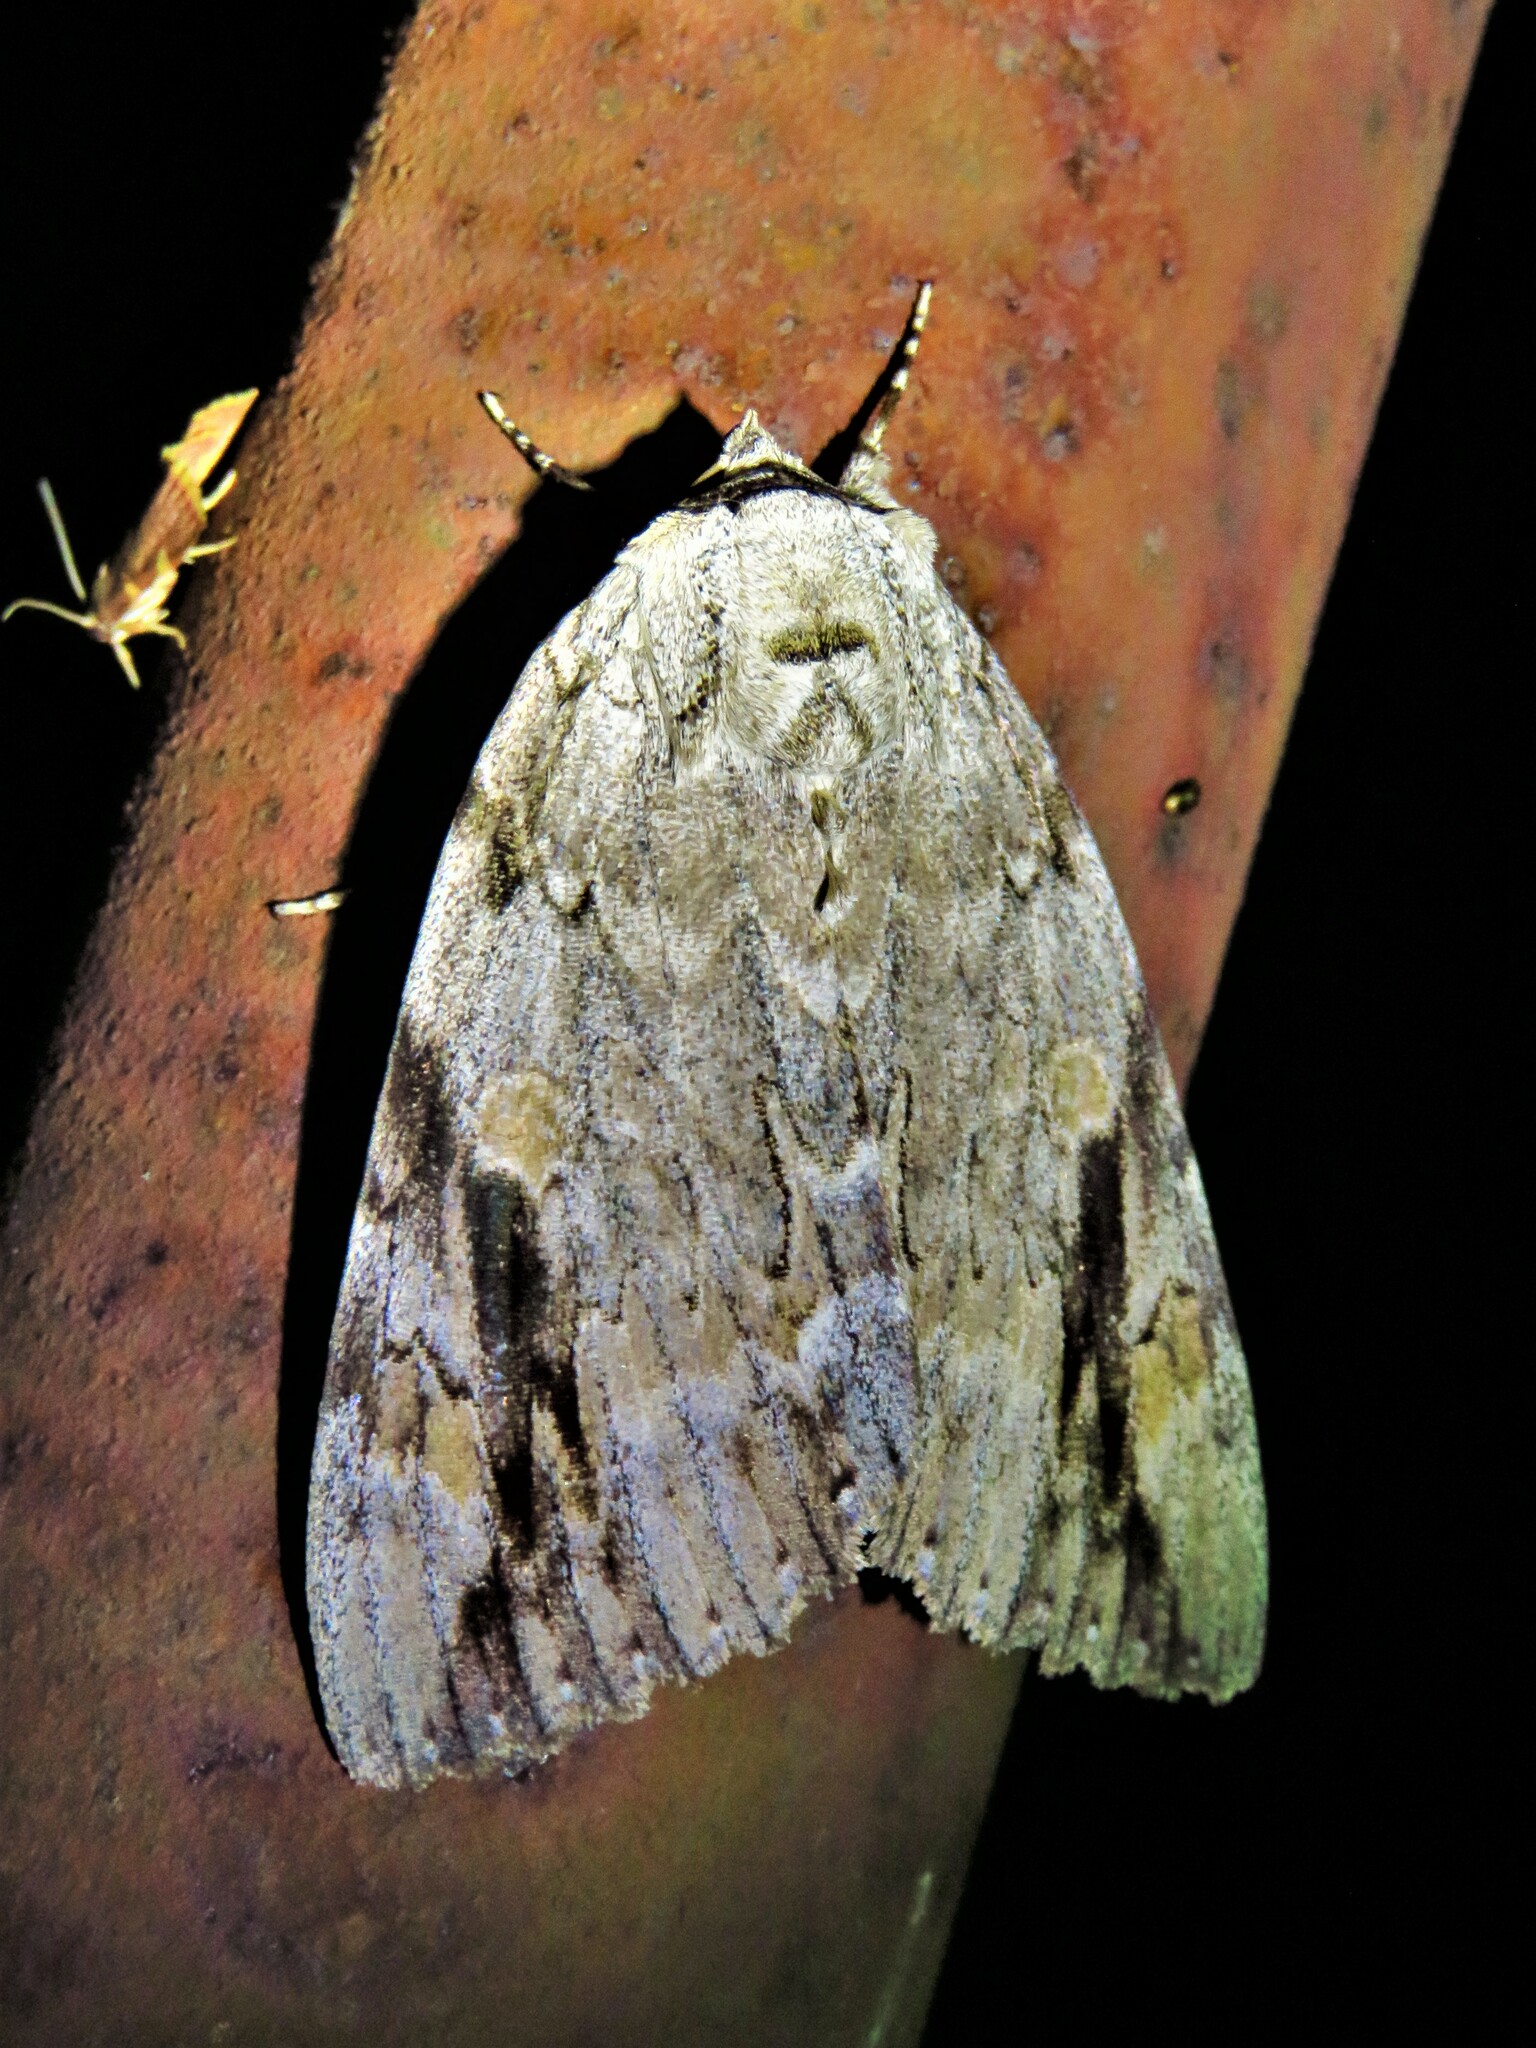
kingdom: Animalia
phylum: Arthropoda
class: Insecta
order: Lepidoptera
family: Erebidae
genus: Catocala
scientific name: Catocala maestosa
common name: Sad underwing
